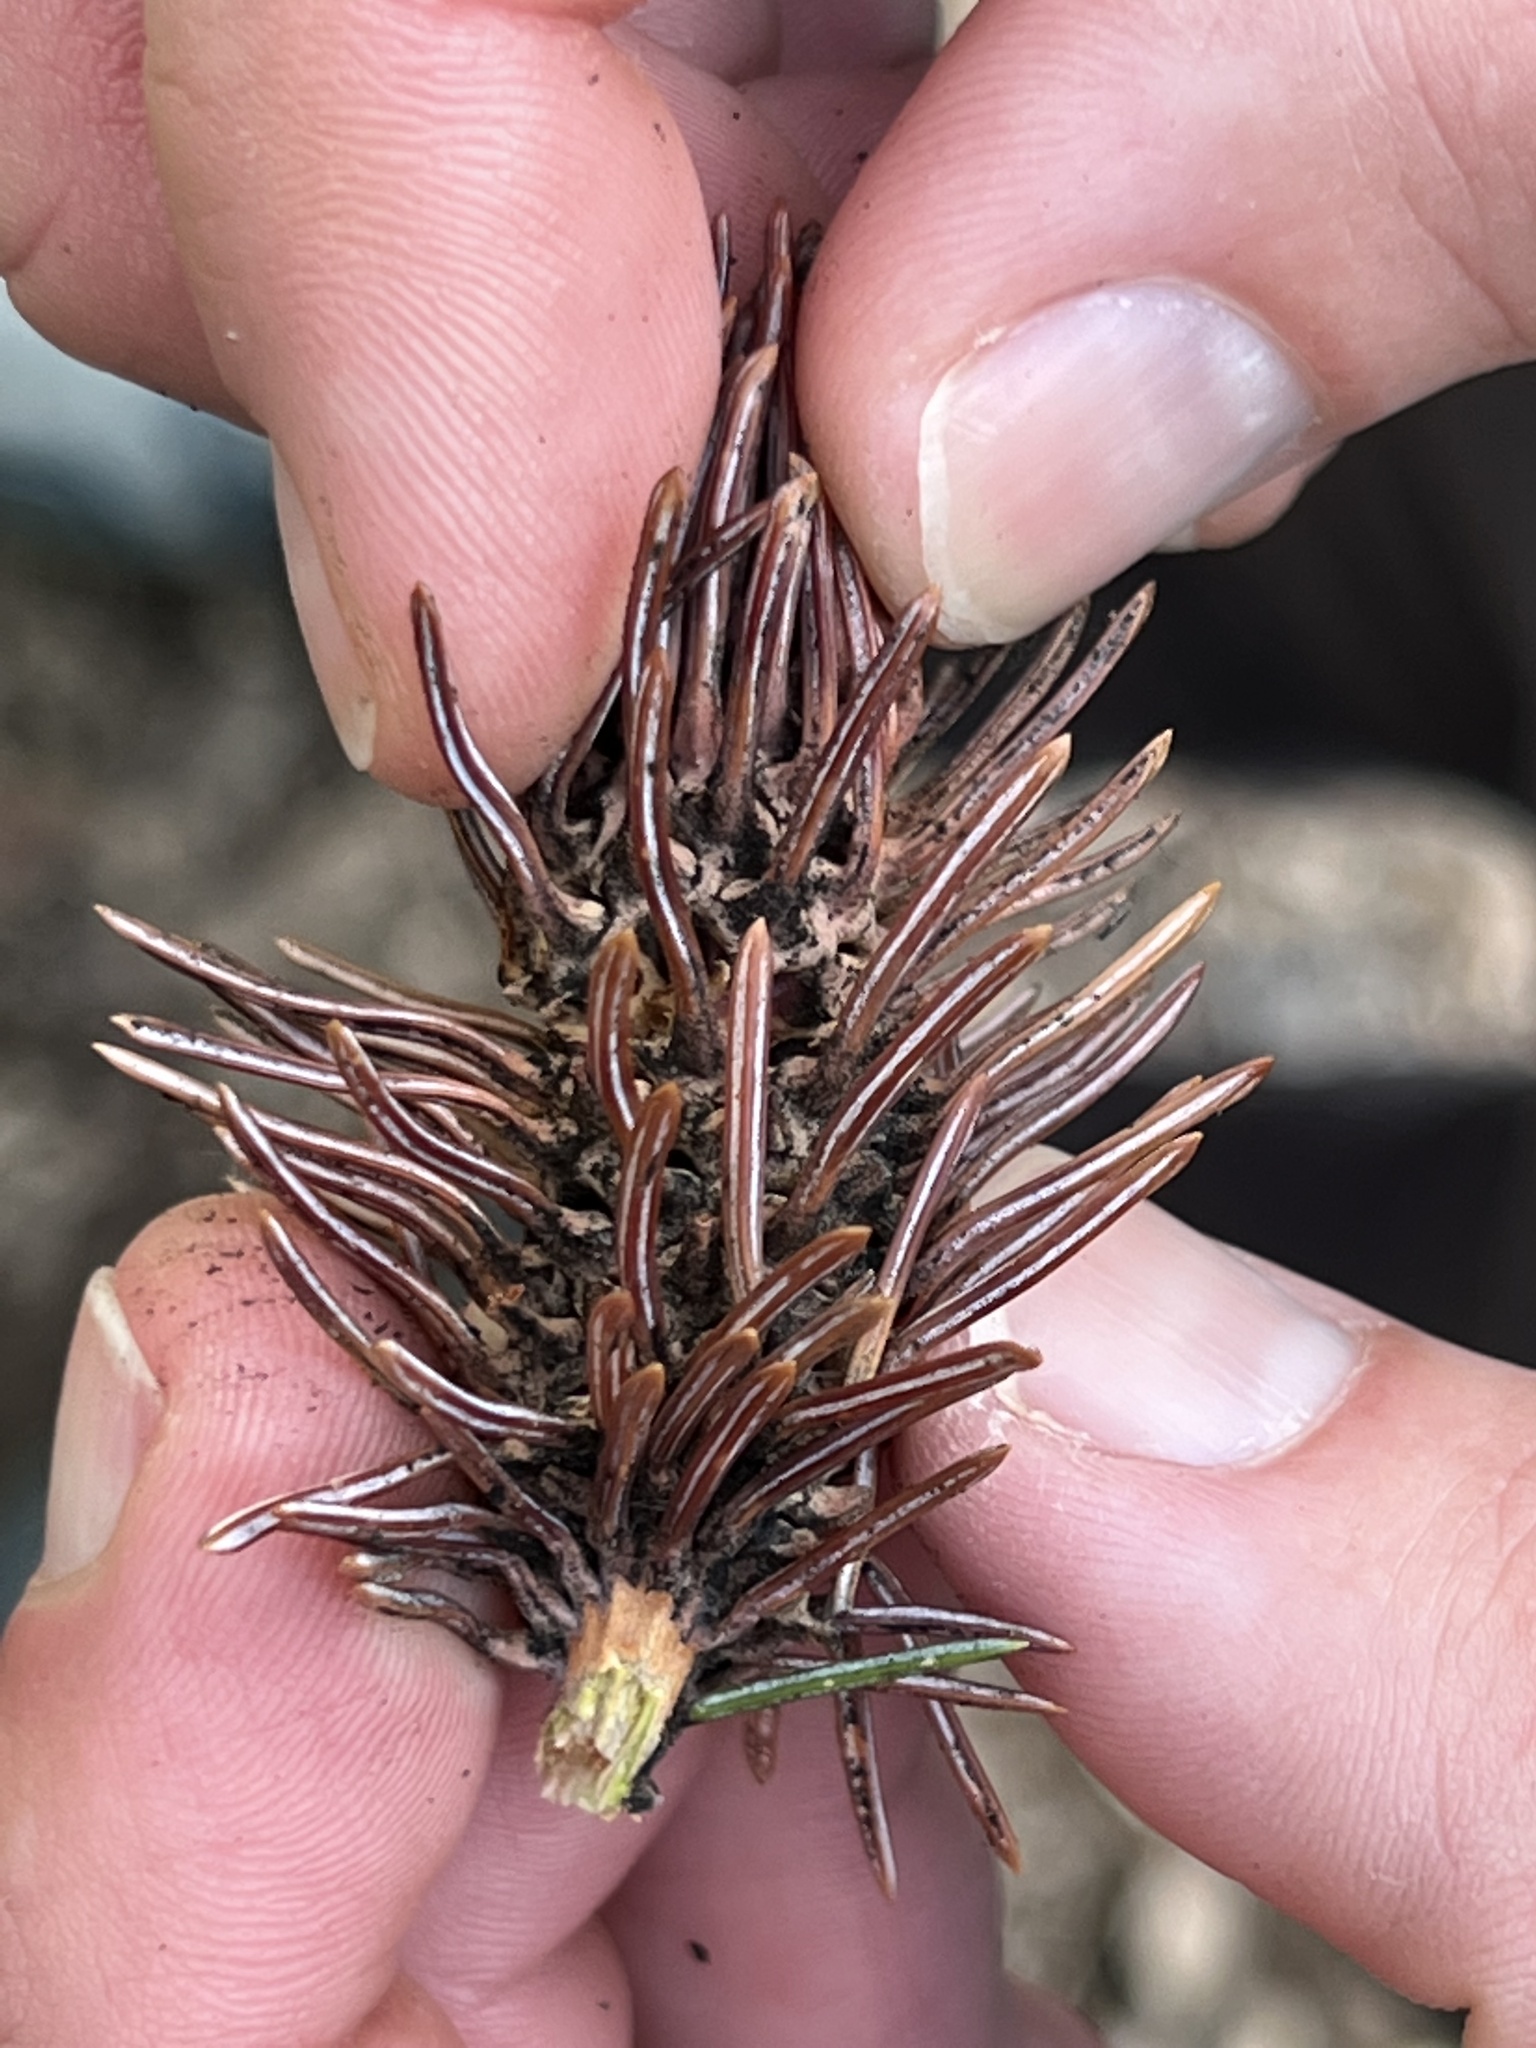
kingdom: Animalia
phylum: Arthropoda
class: Insecta
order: Hemiptera
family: Adelgidae
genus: Adelges
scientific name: Adelges cooleyi
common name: Cooley spruce gall adelgid
